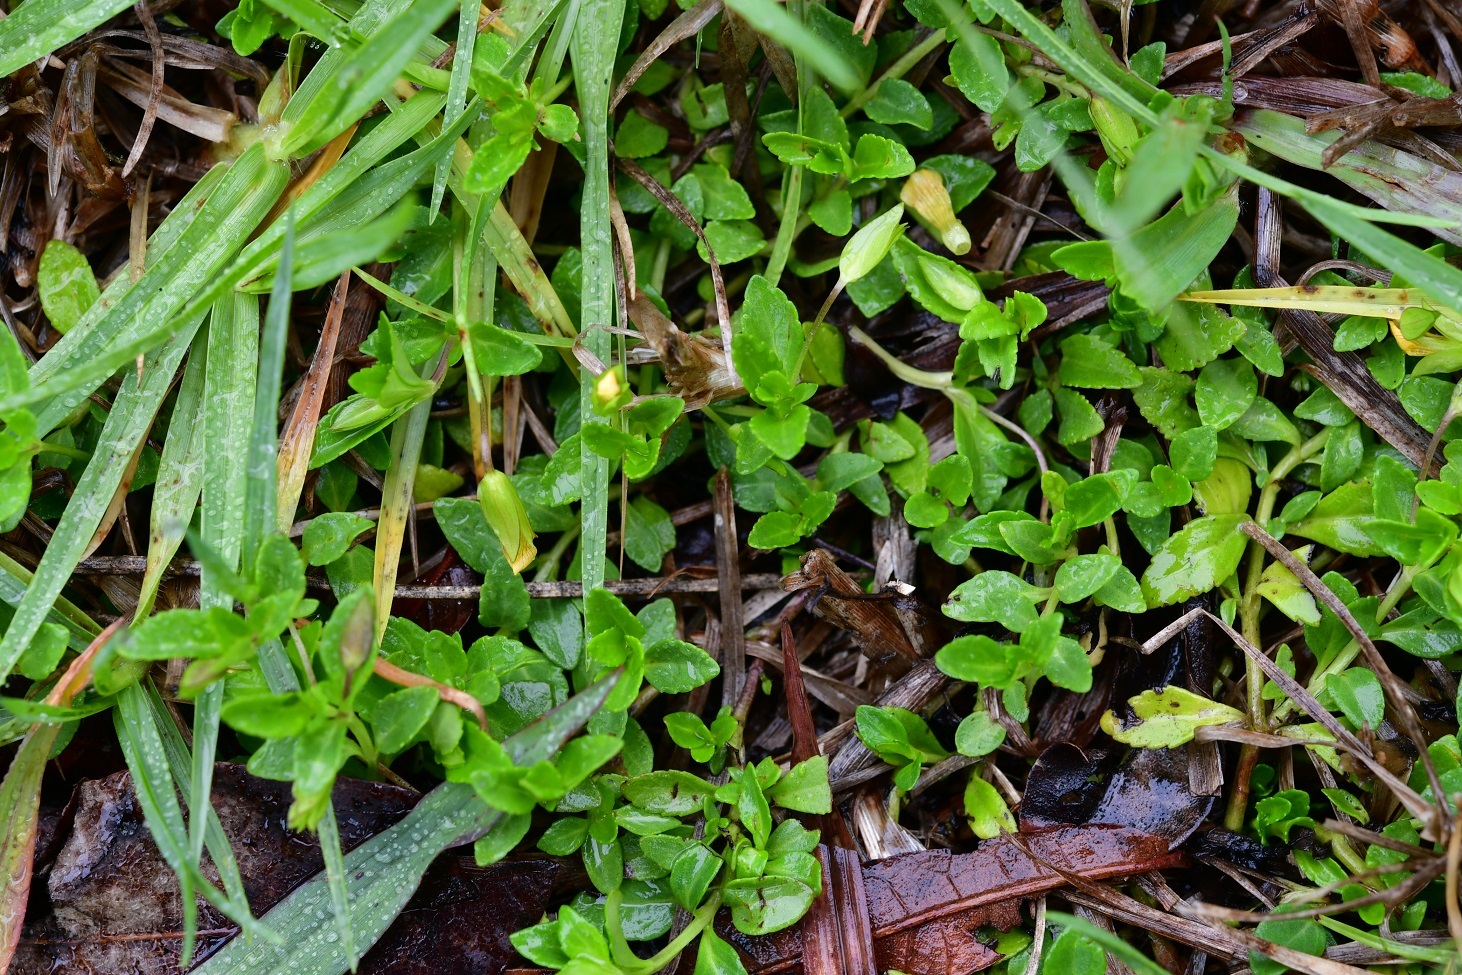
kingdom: Plantae
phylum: Tracheophyta
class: Magnoliopsida
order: Lamiales
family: Plantaginaceae
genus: Mecardonia
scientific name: Mecardonia procumbens
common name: Baby jump-up
